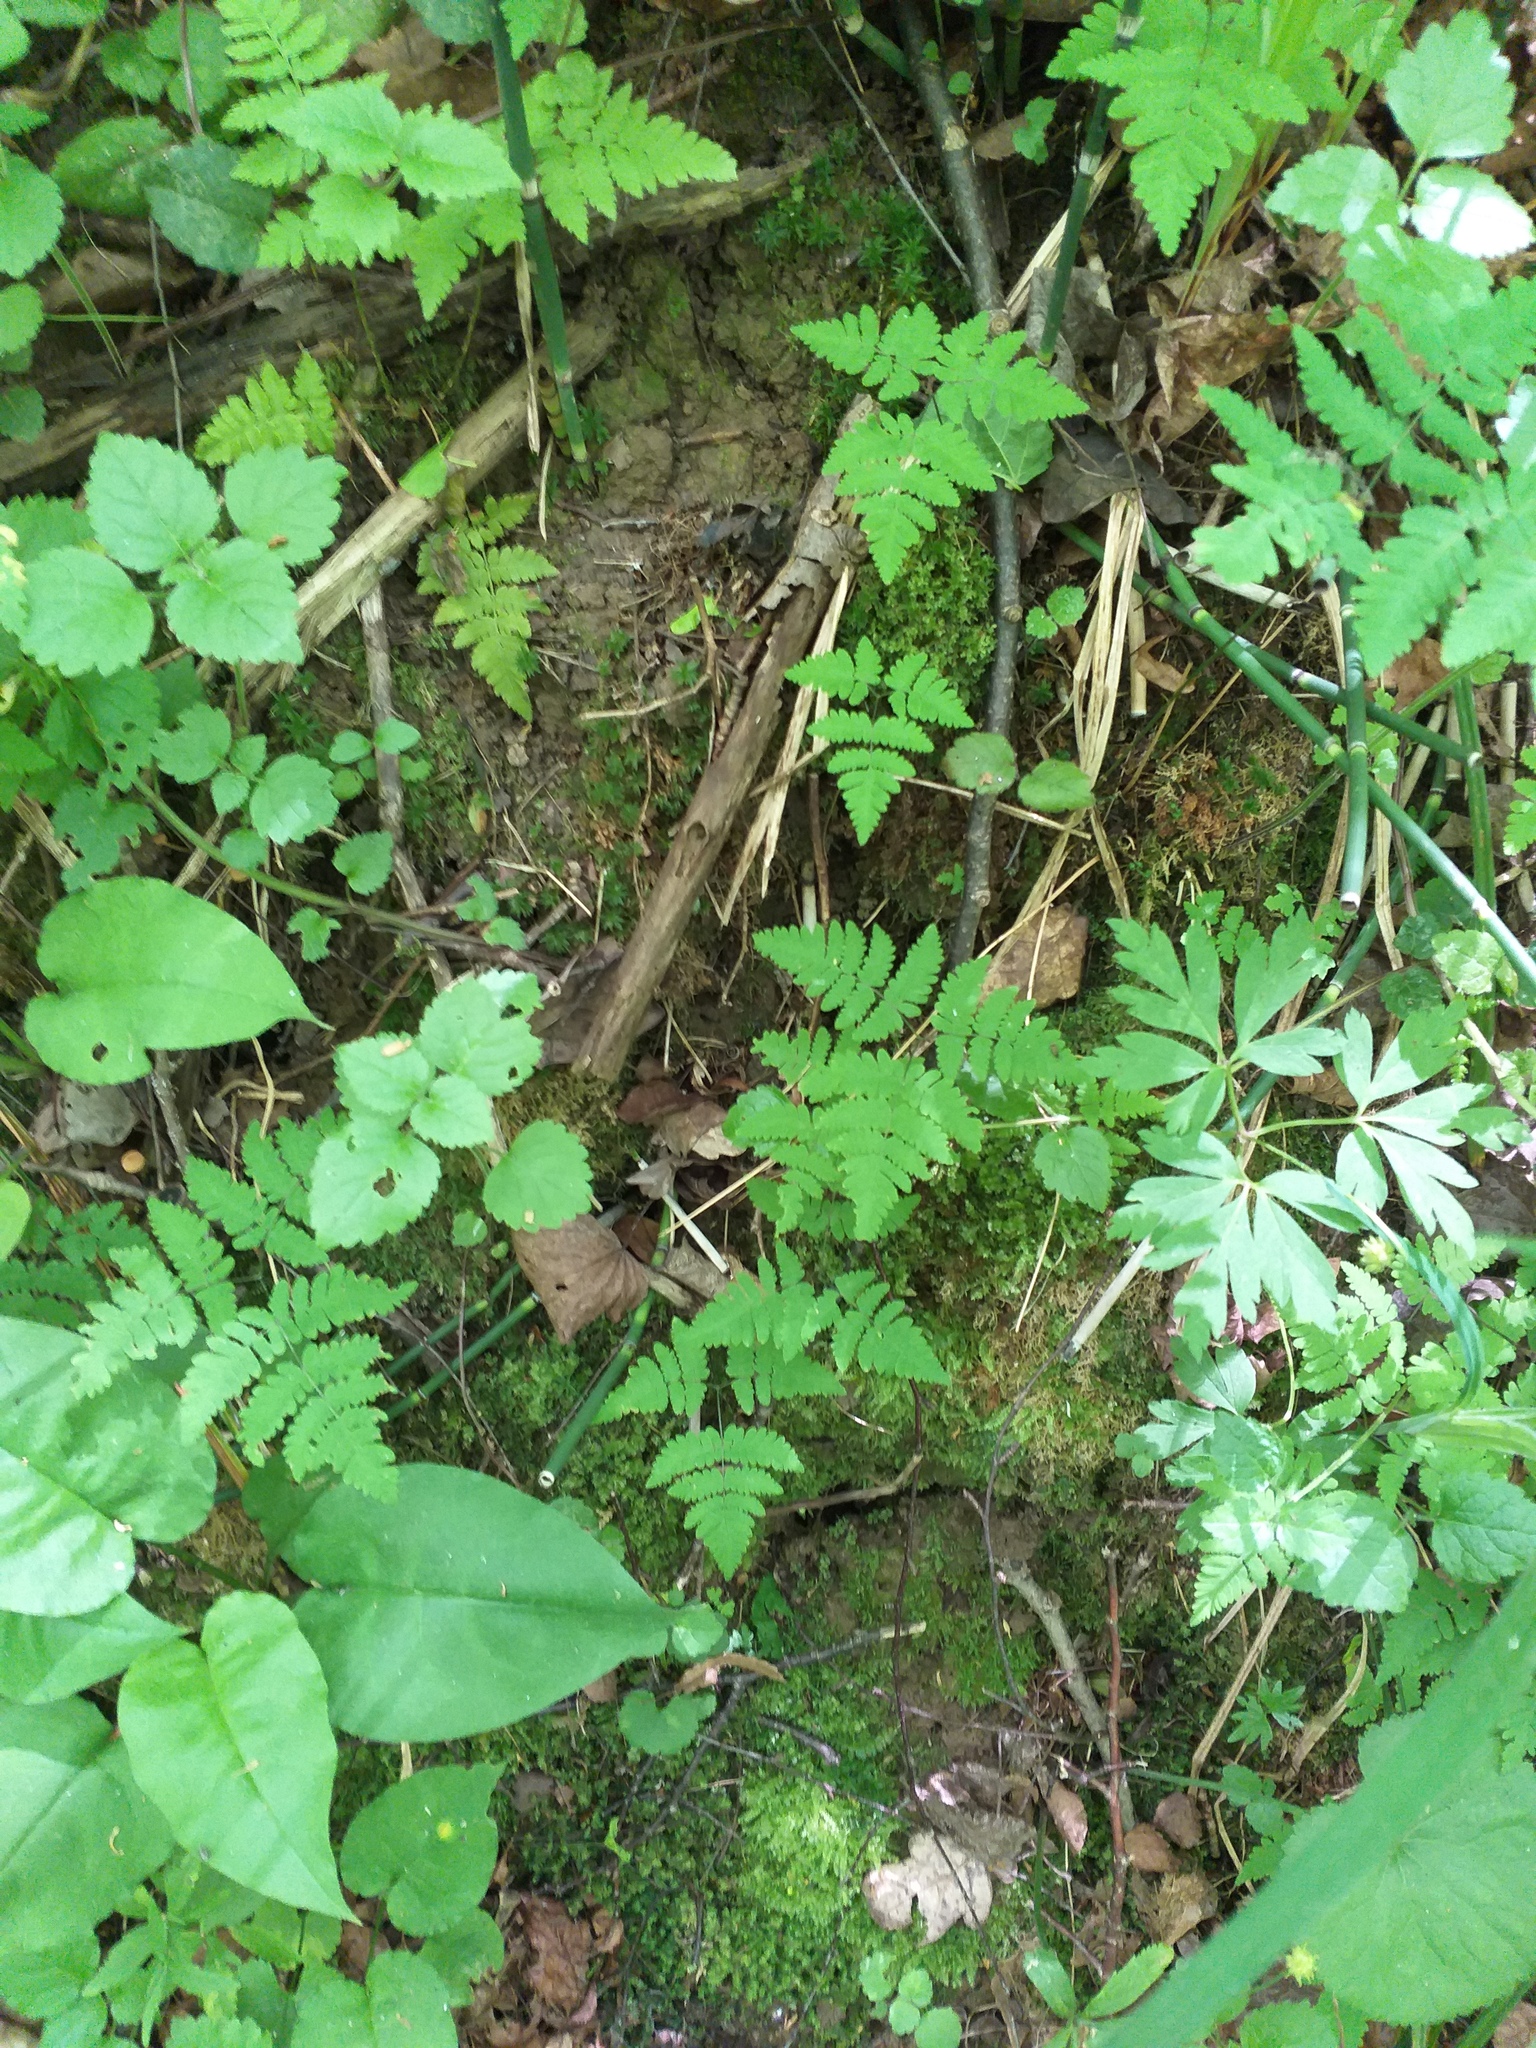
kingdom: Plantae
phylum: Tracheophyta
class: Polypodiopsida
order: Polypodiales
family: Cystopteridaceae
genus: Gymnocarpium
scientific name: Gymnocarpium dryopteris
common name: Oak fern
